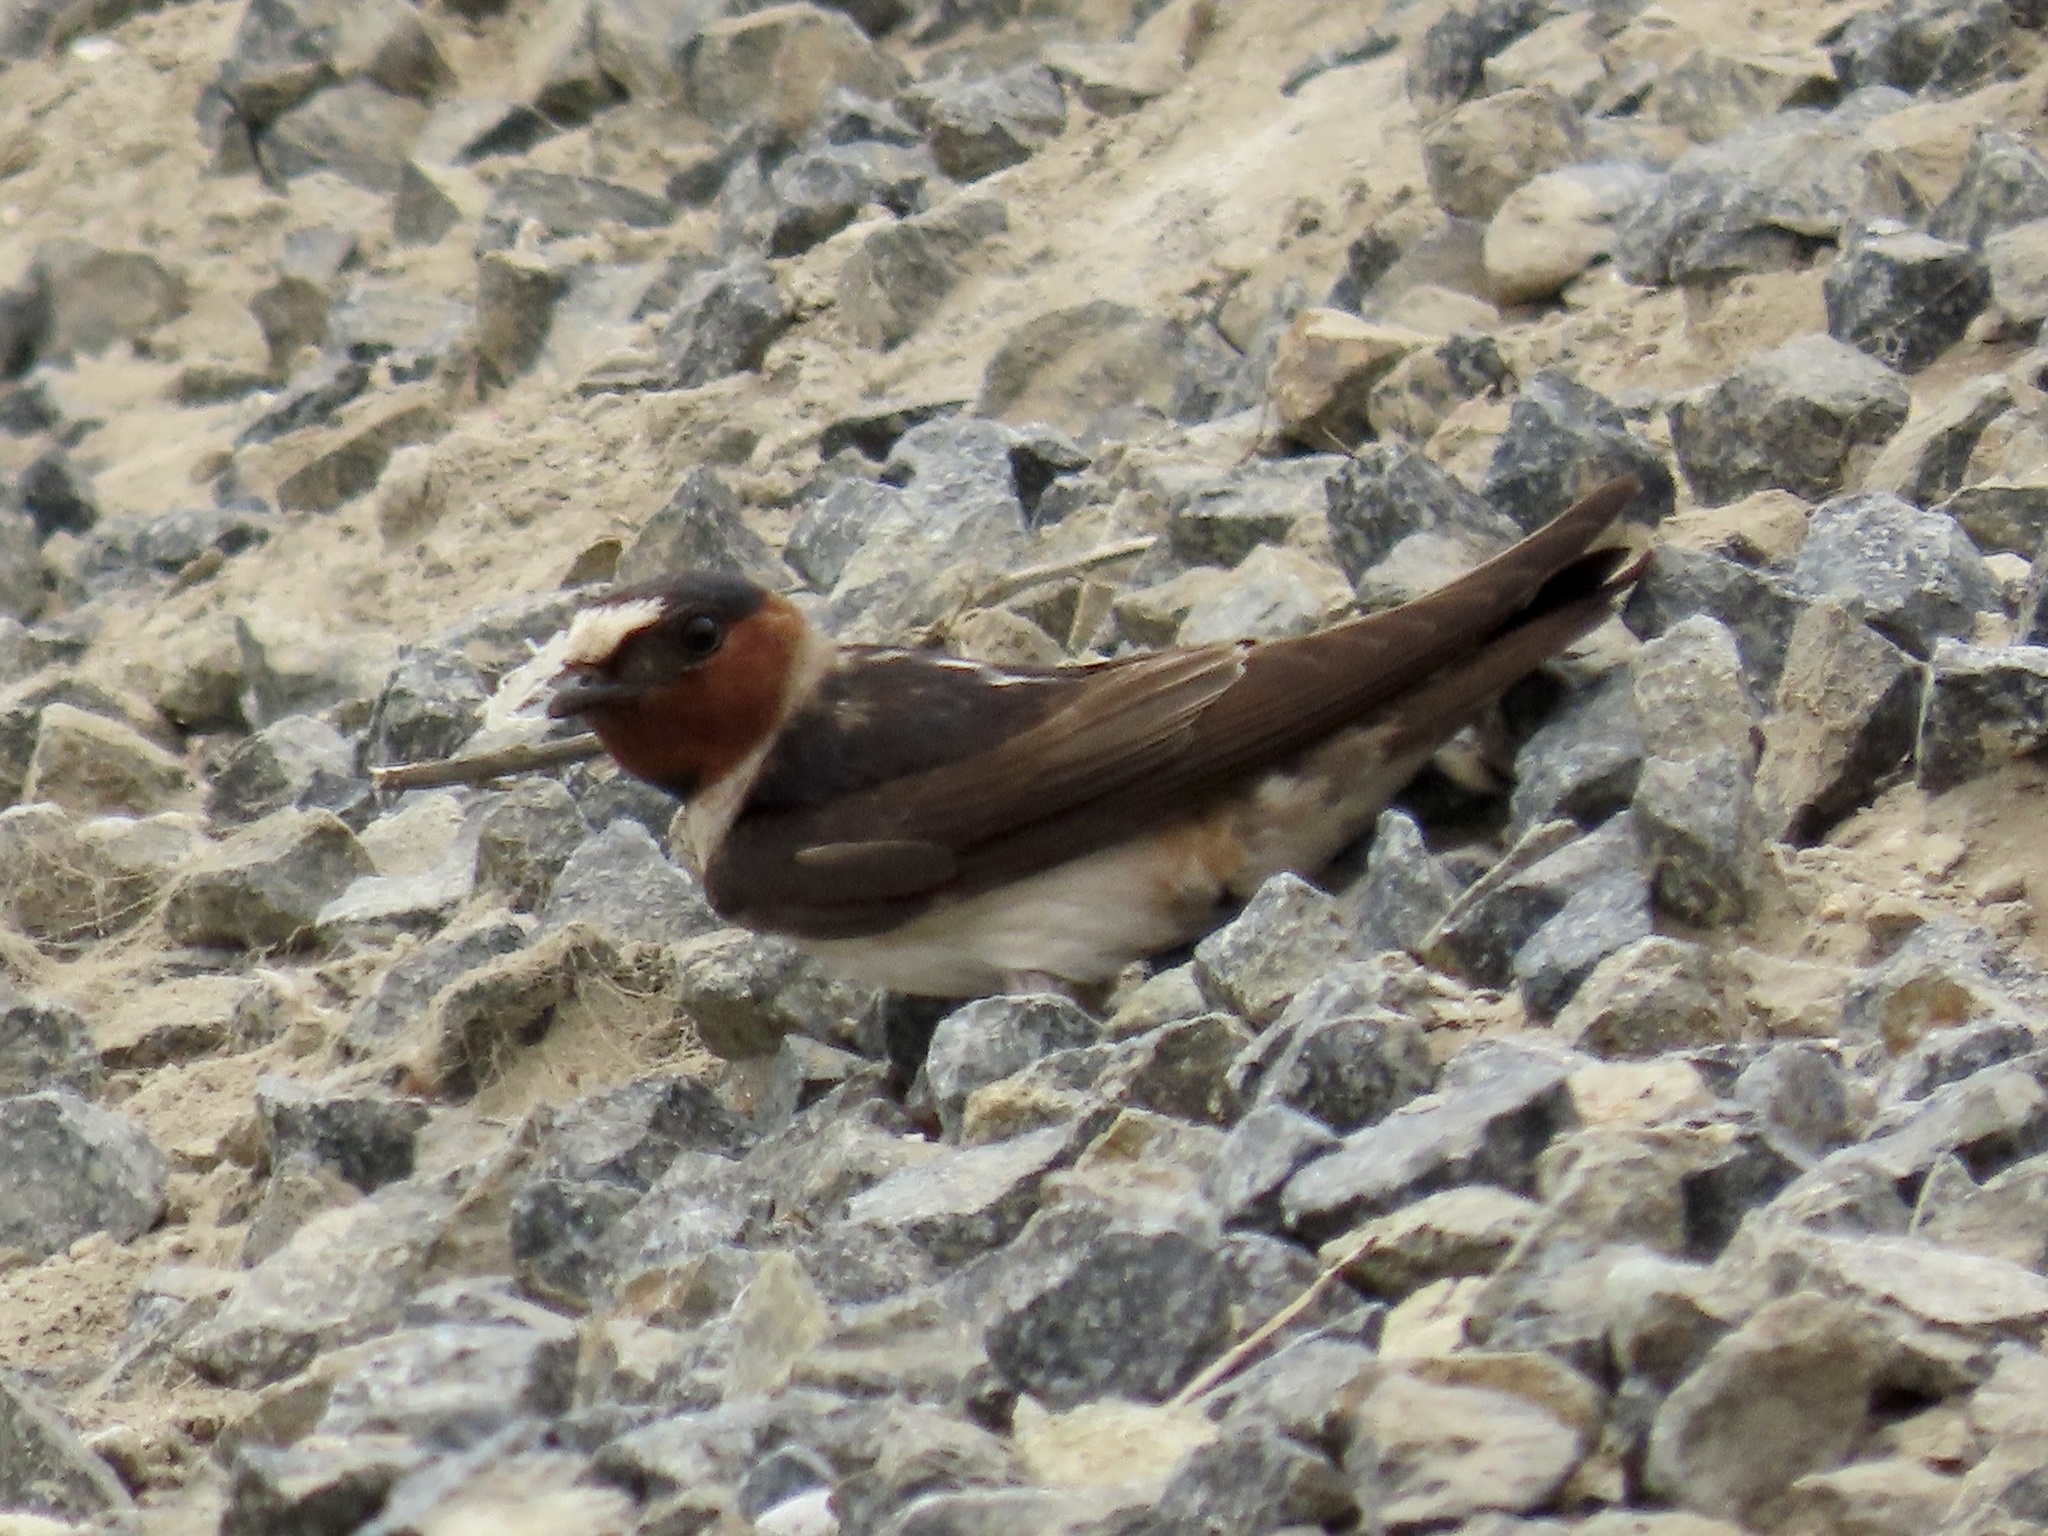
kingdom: Animalia
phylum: Chordata
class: Aves
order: Passeriformes
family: Hirundinidae
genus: Petrochelidon
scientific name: Petrochelidon pyrrhonota
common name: American cliff swallow
